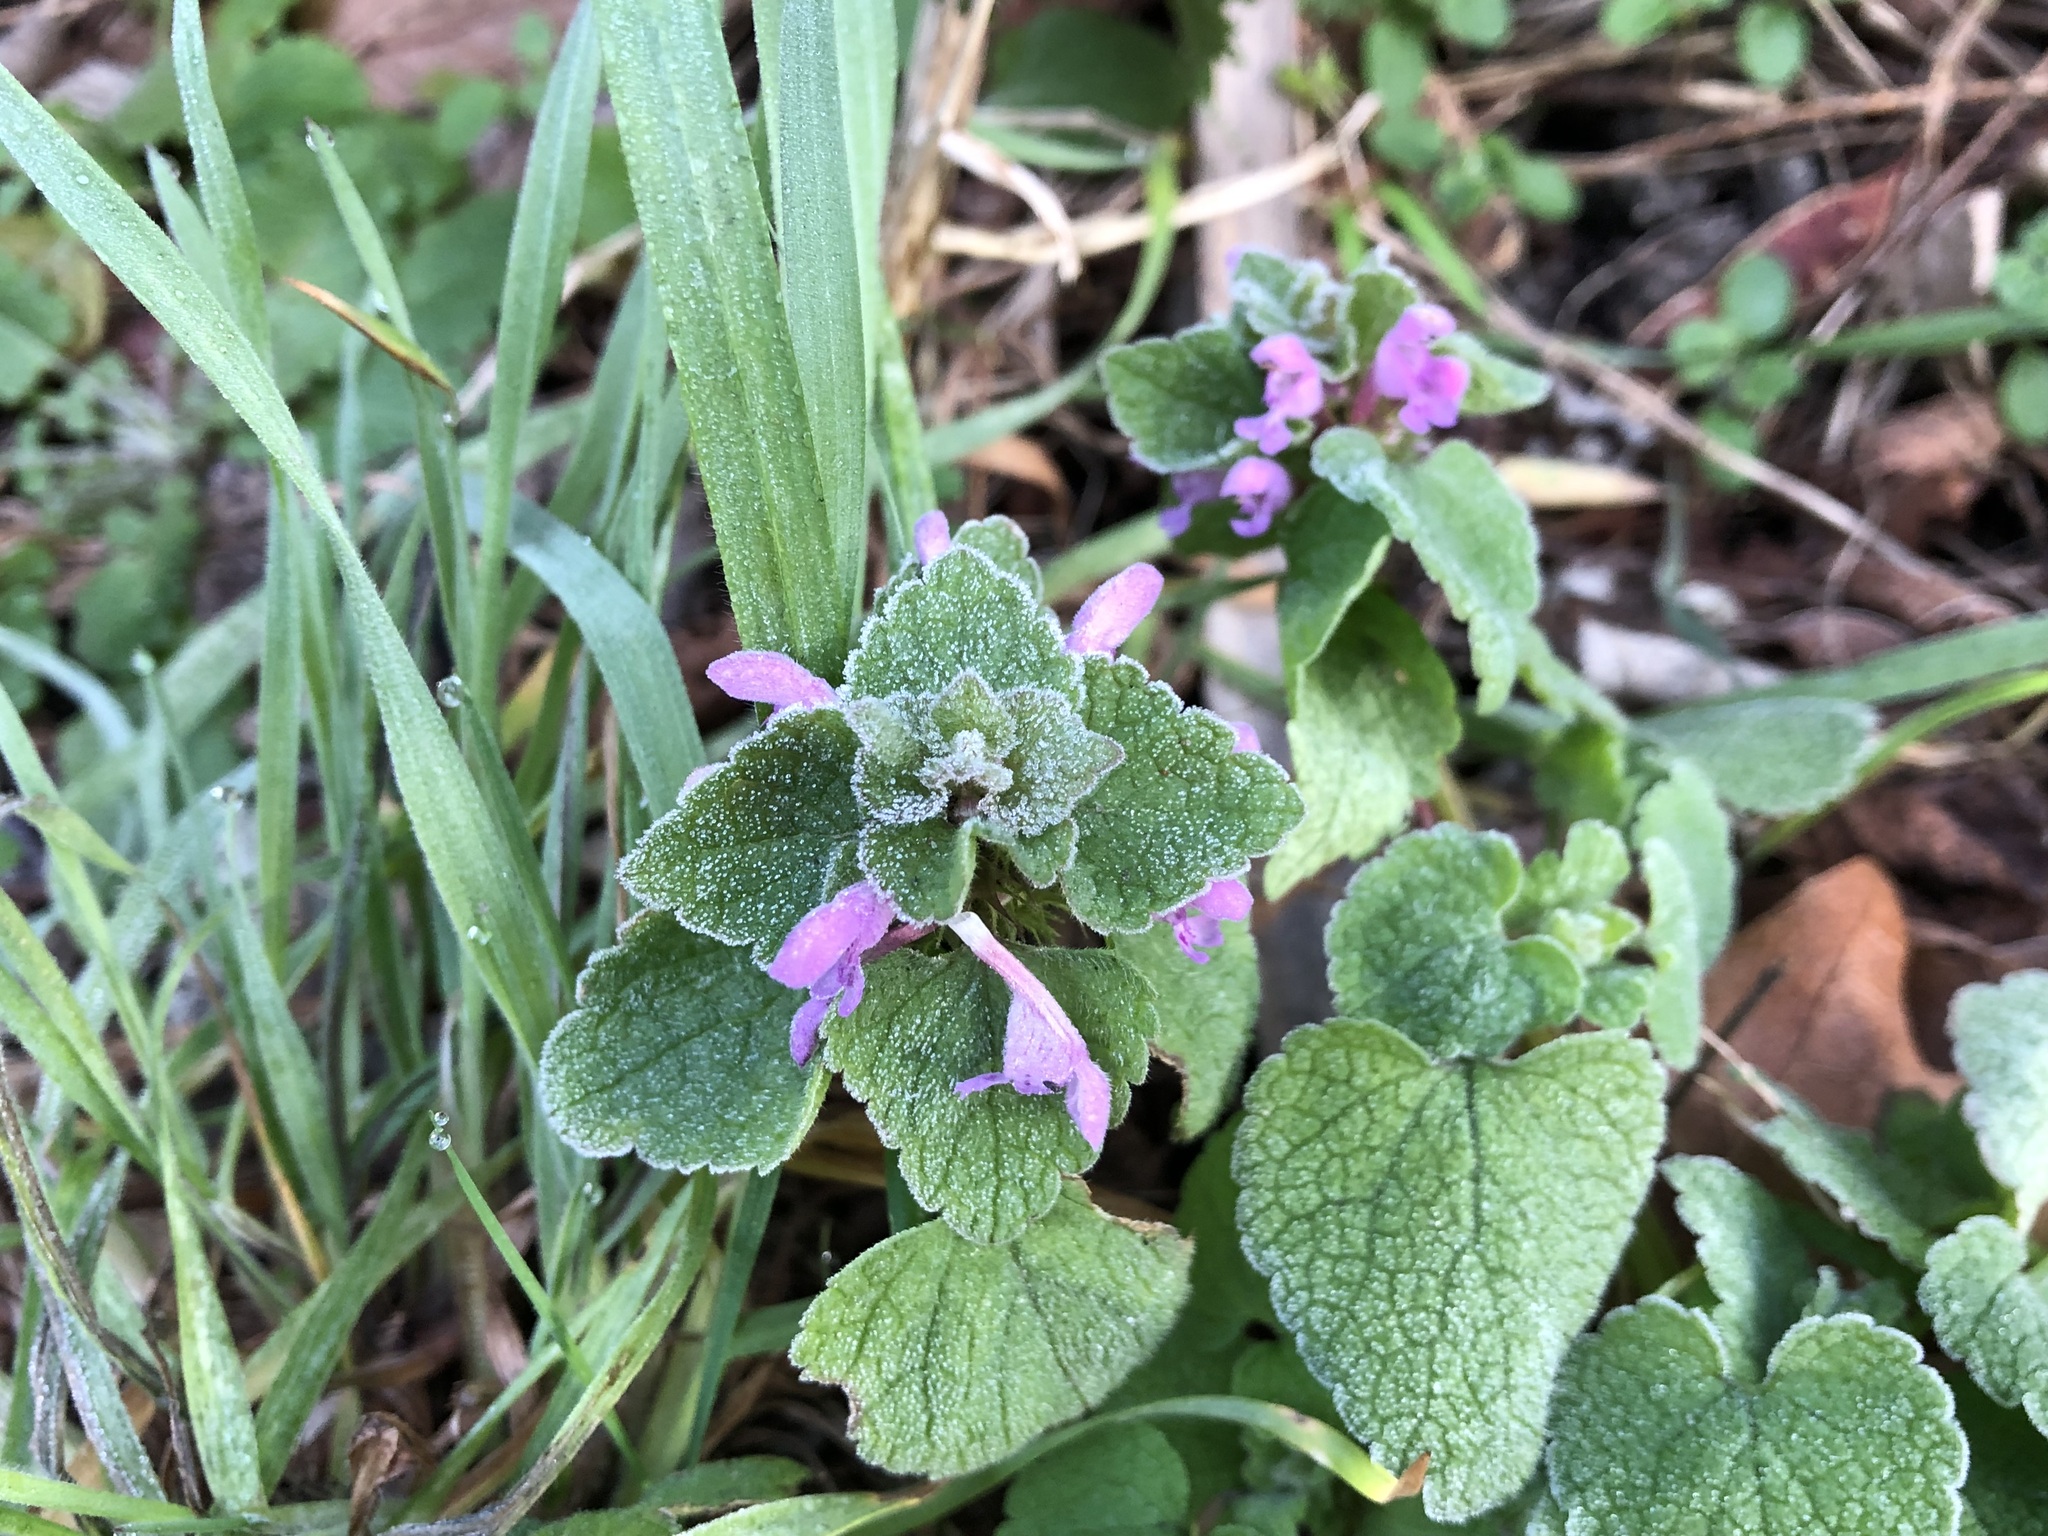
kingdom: Plantae
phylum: Tracheophyta
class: Magnoliopsida
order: Lamiales
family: Lamiaceae
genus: Lamium
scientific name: Lamium purpureum
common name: Red dead-nettle
